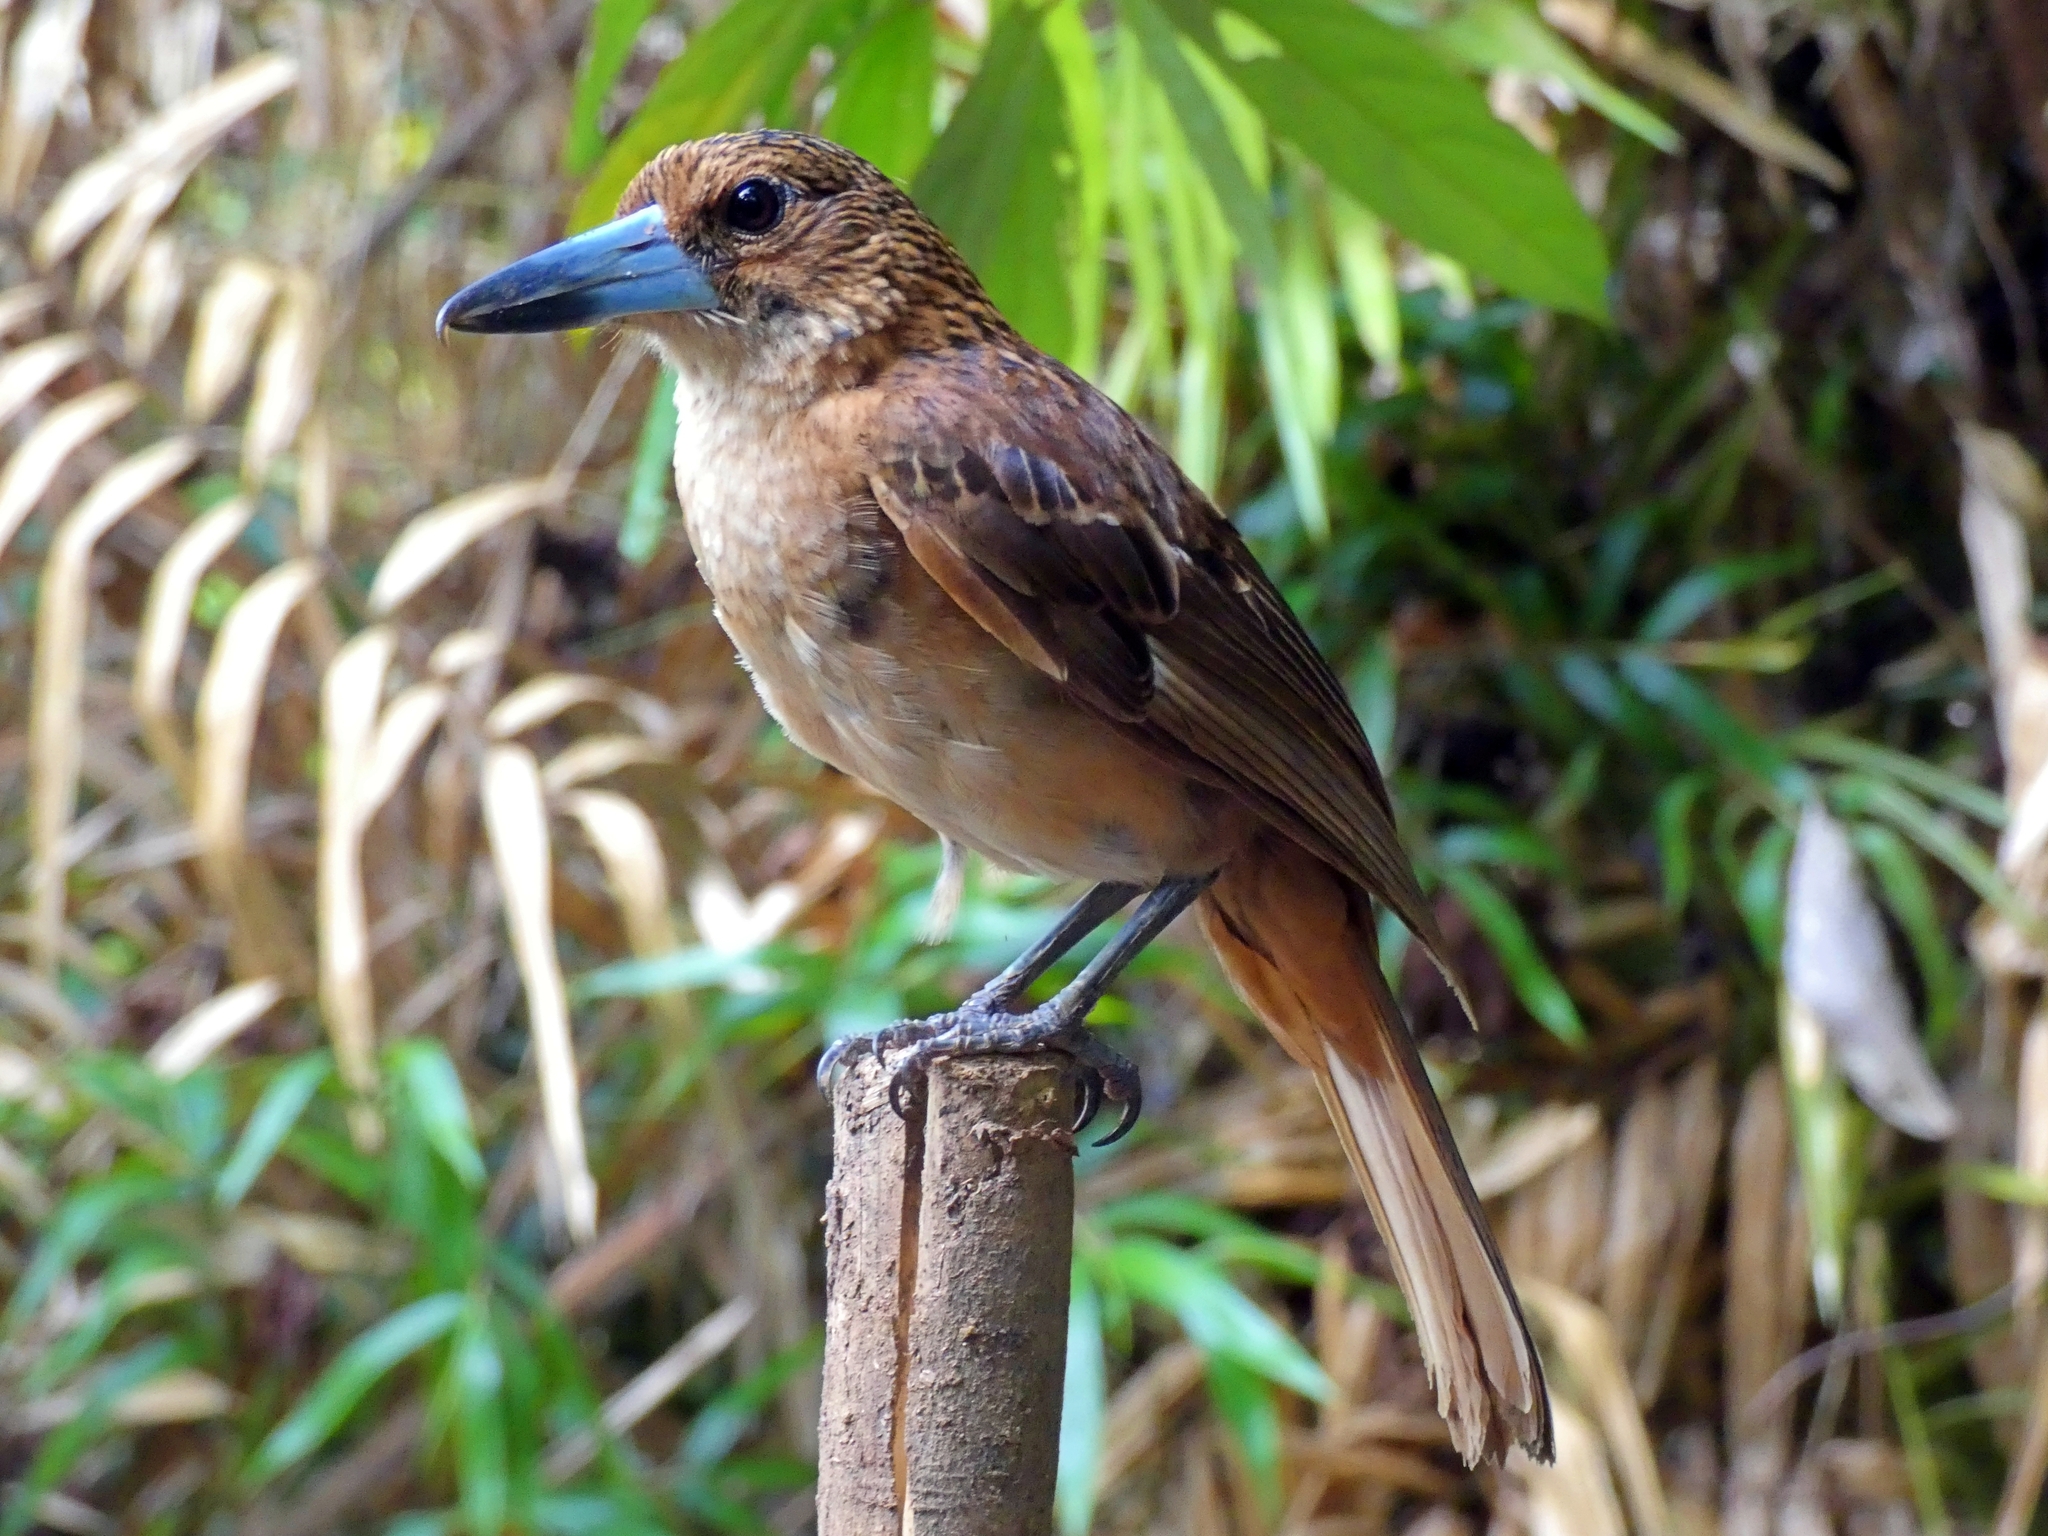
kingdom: Animalia
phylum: Chordata
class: Aves
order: Passeriformes
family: Artamidae
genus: Melloria
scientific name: Melloria quoyi
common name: Black butcherbird
